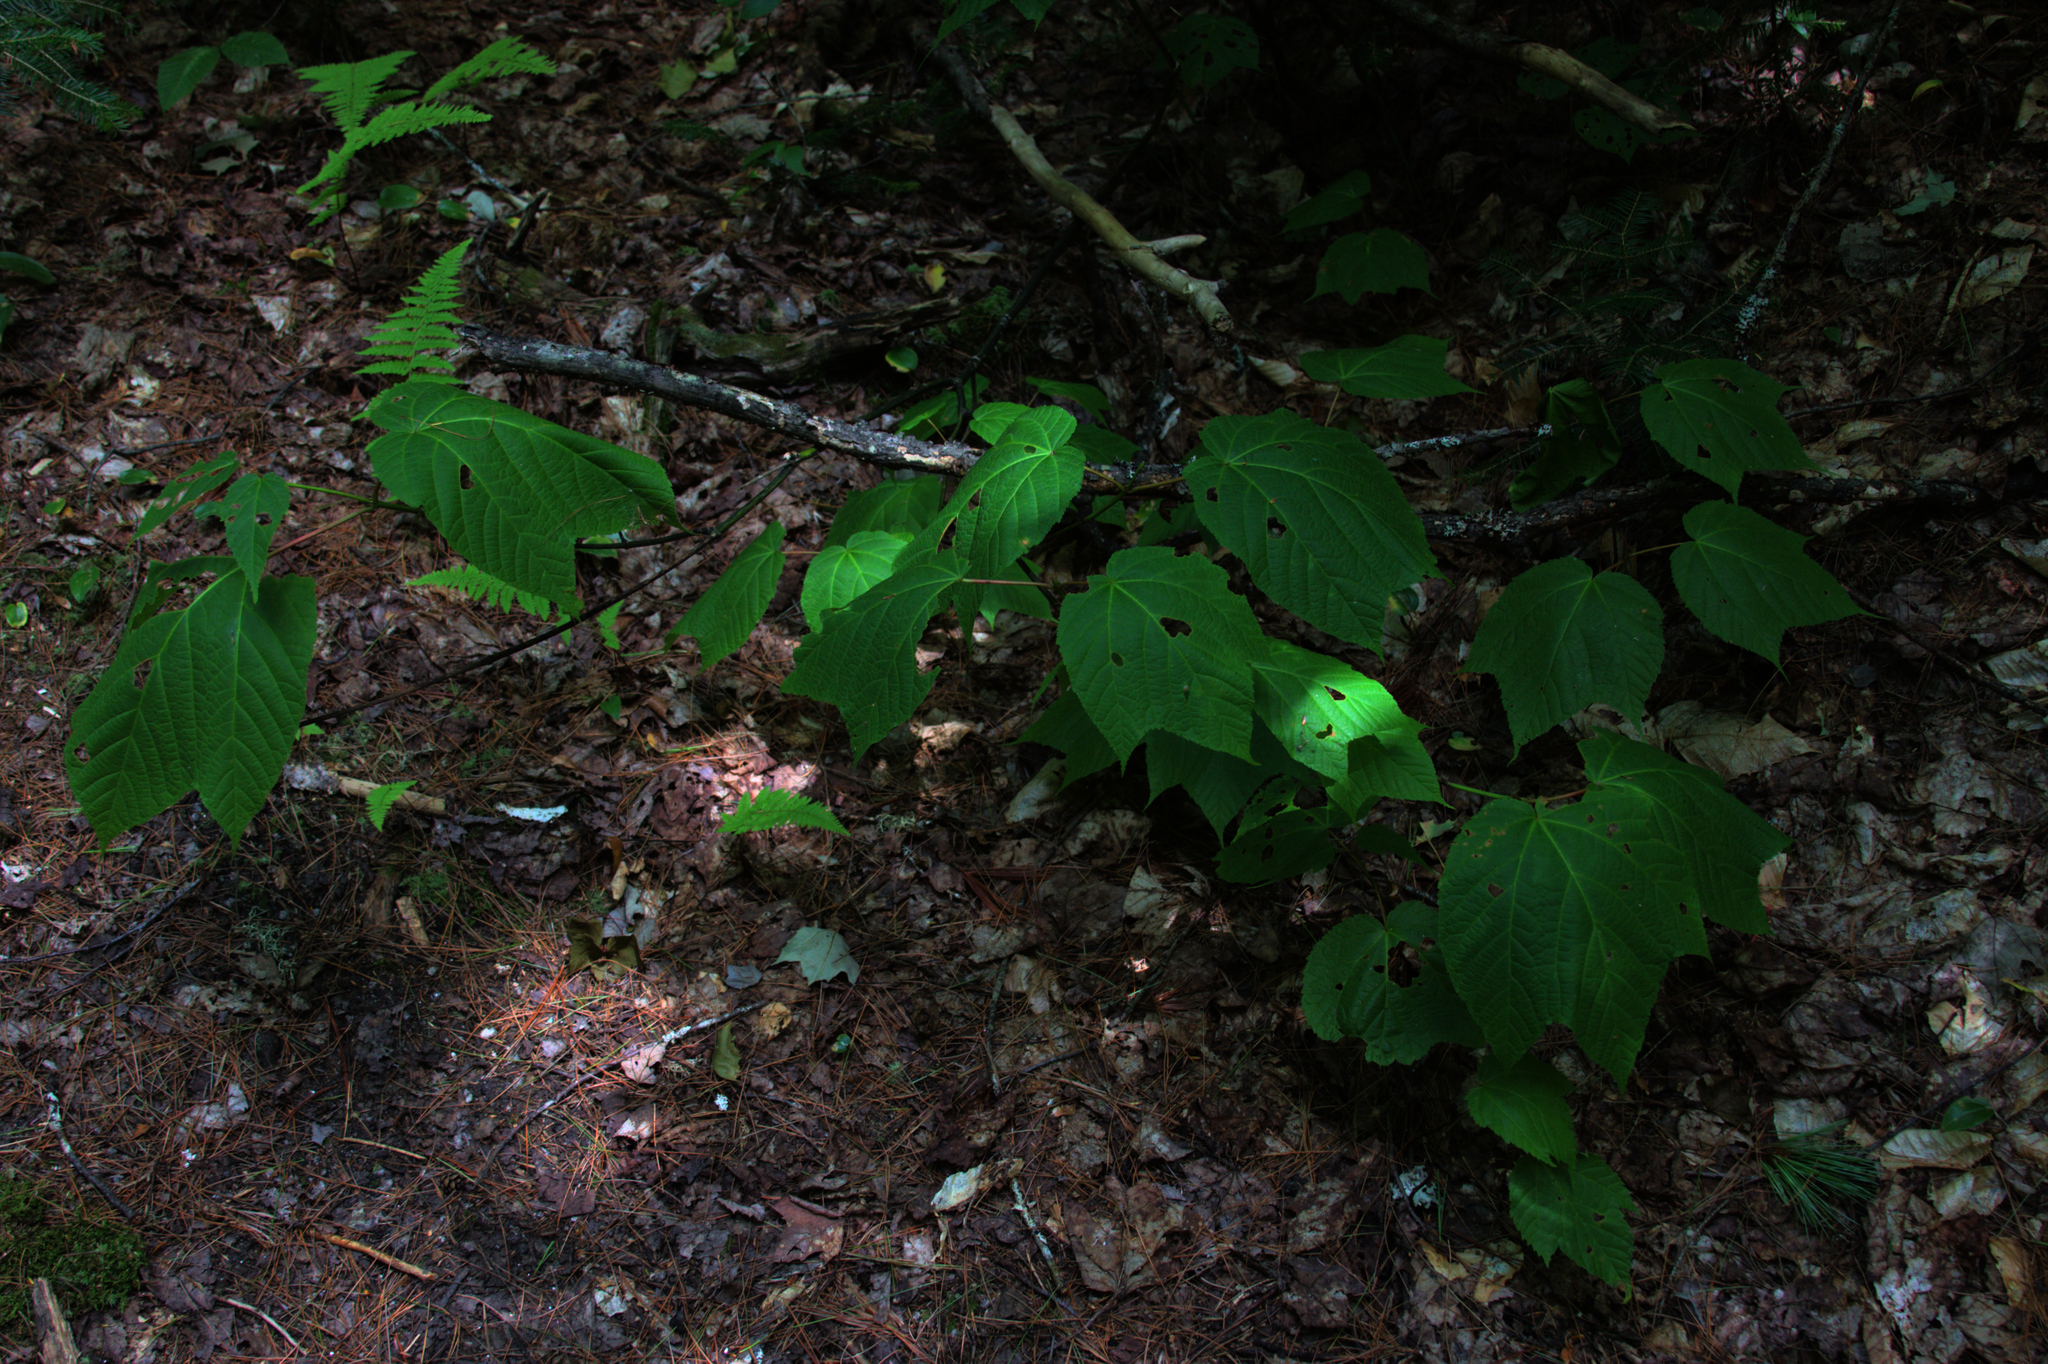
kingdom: Plantae
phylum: Tracheophyta
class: Magnoliopsida
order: Sapindales
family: Sapindaceae
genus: Acer
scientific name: Acer pensylvanicum
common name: Moosewood
